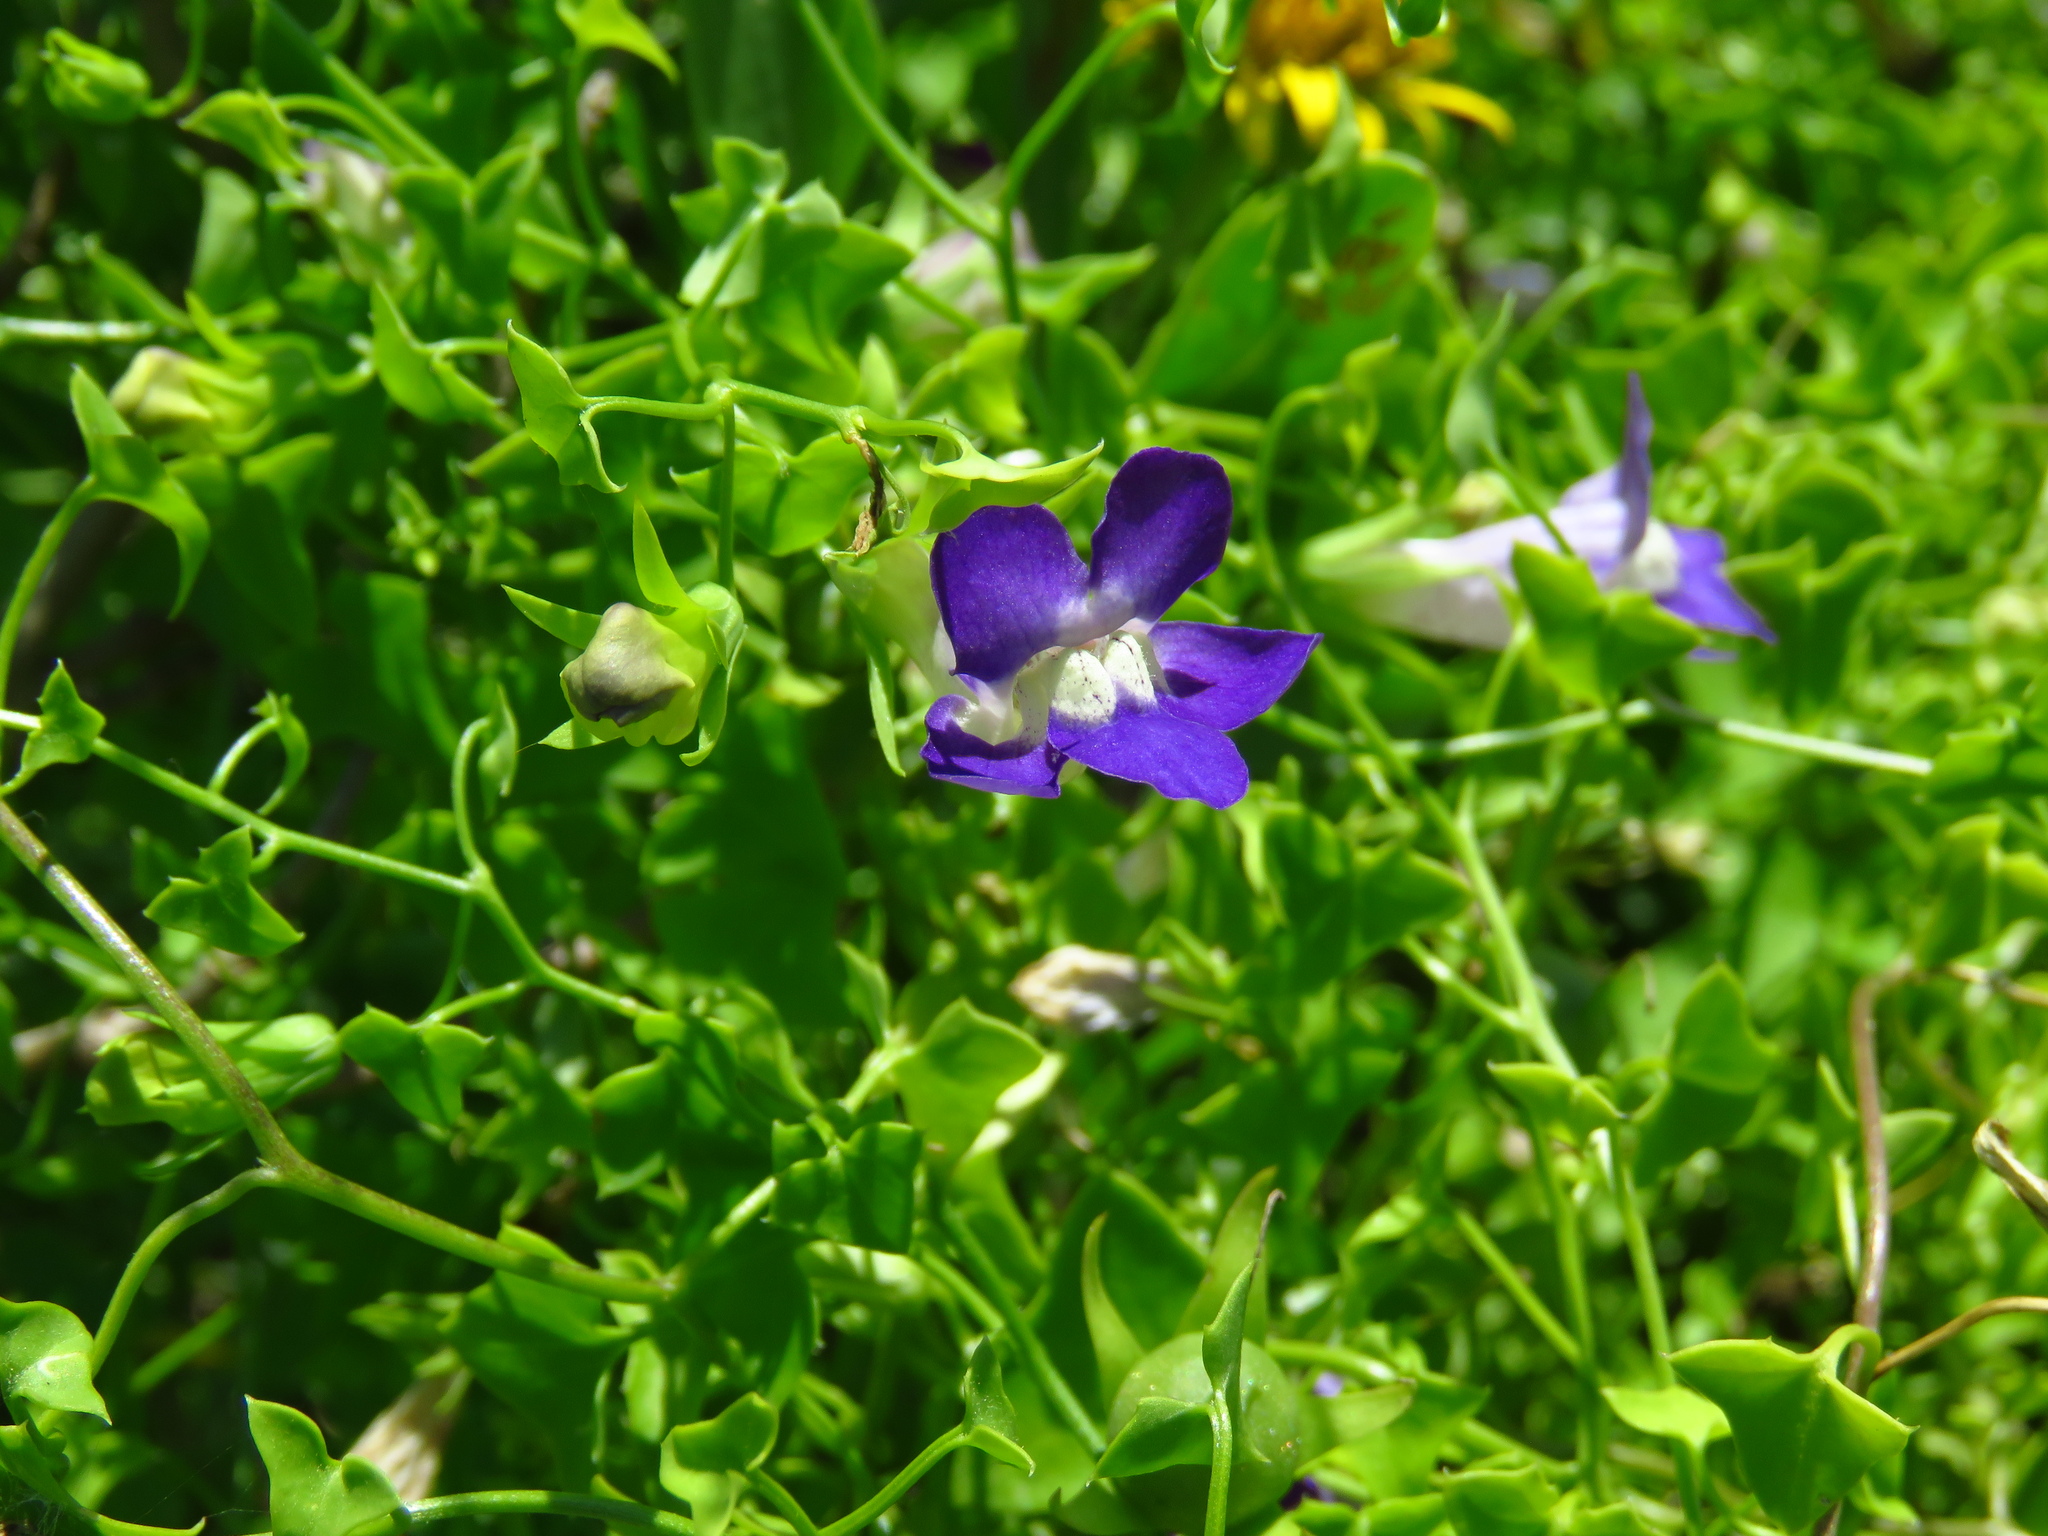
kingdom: Plantae
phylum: Tracheophyta
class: Magnoliopsida
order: Lamiales
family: Plantaginaceae
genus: Maurandella
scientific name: Maurandella antirrhiniflora
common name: Violet twining-snapdragon
